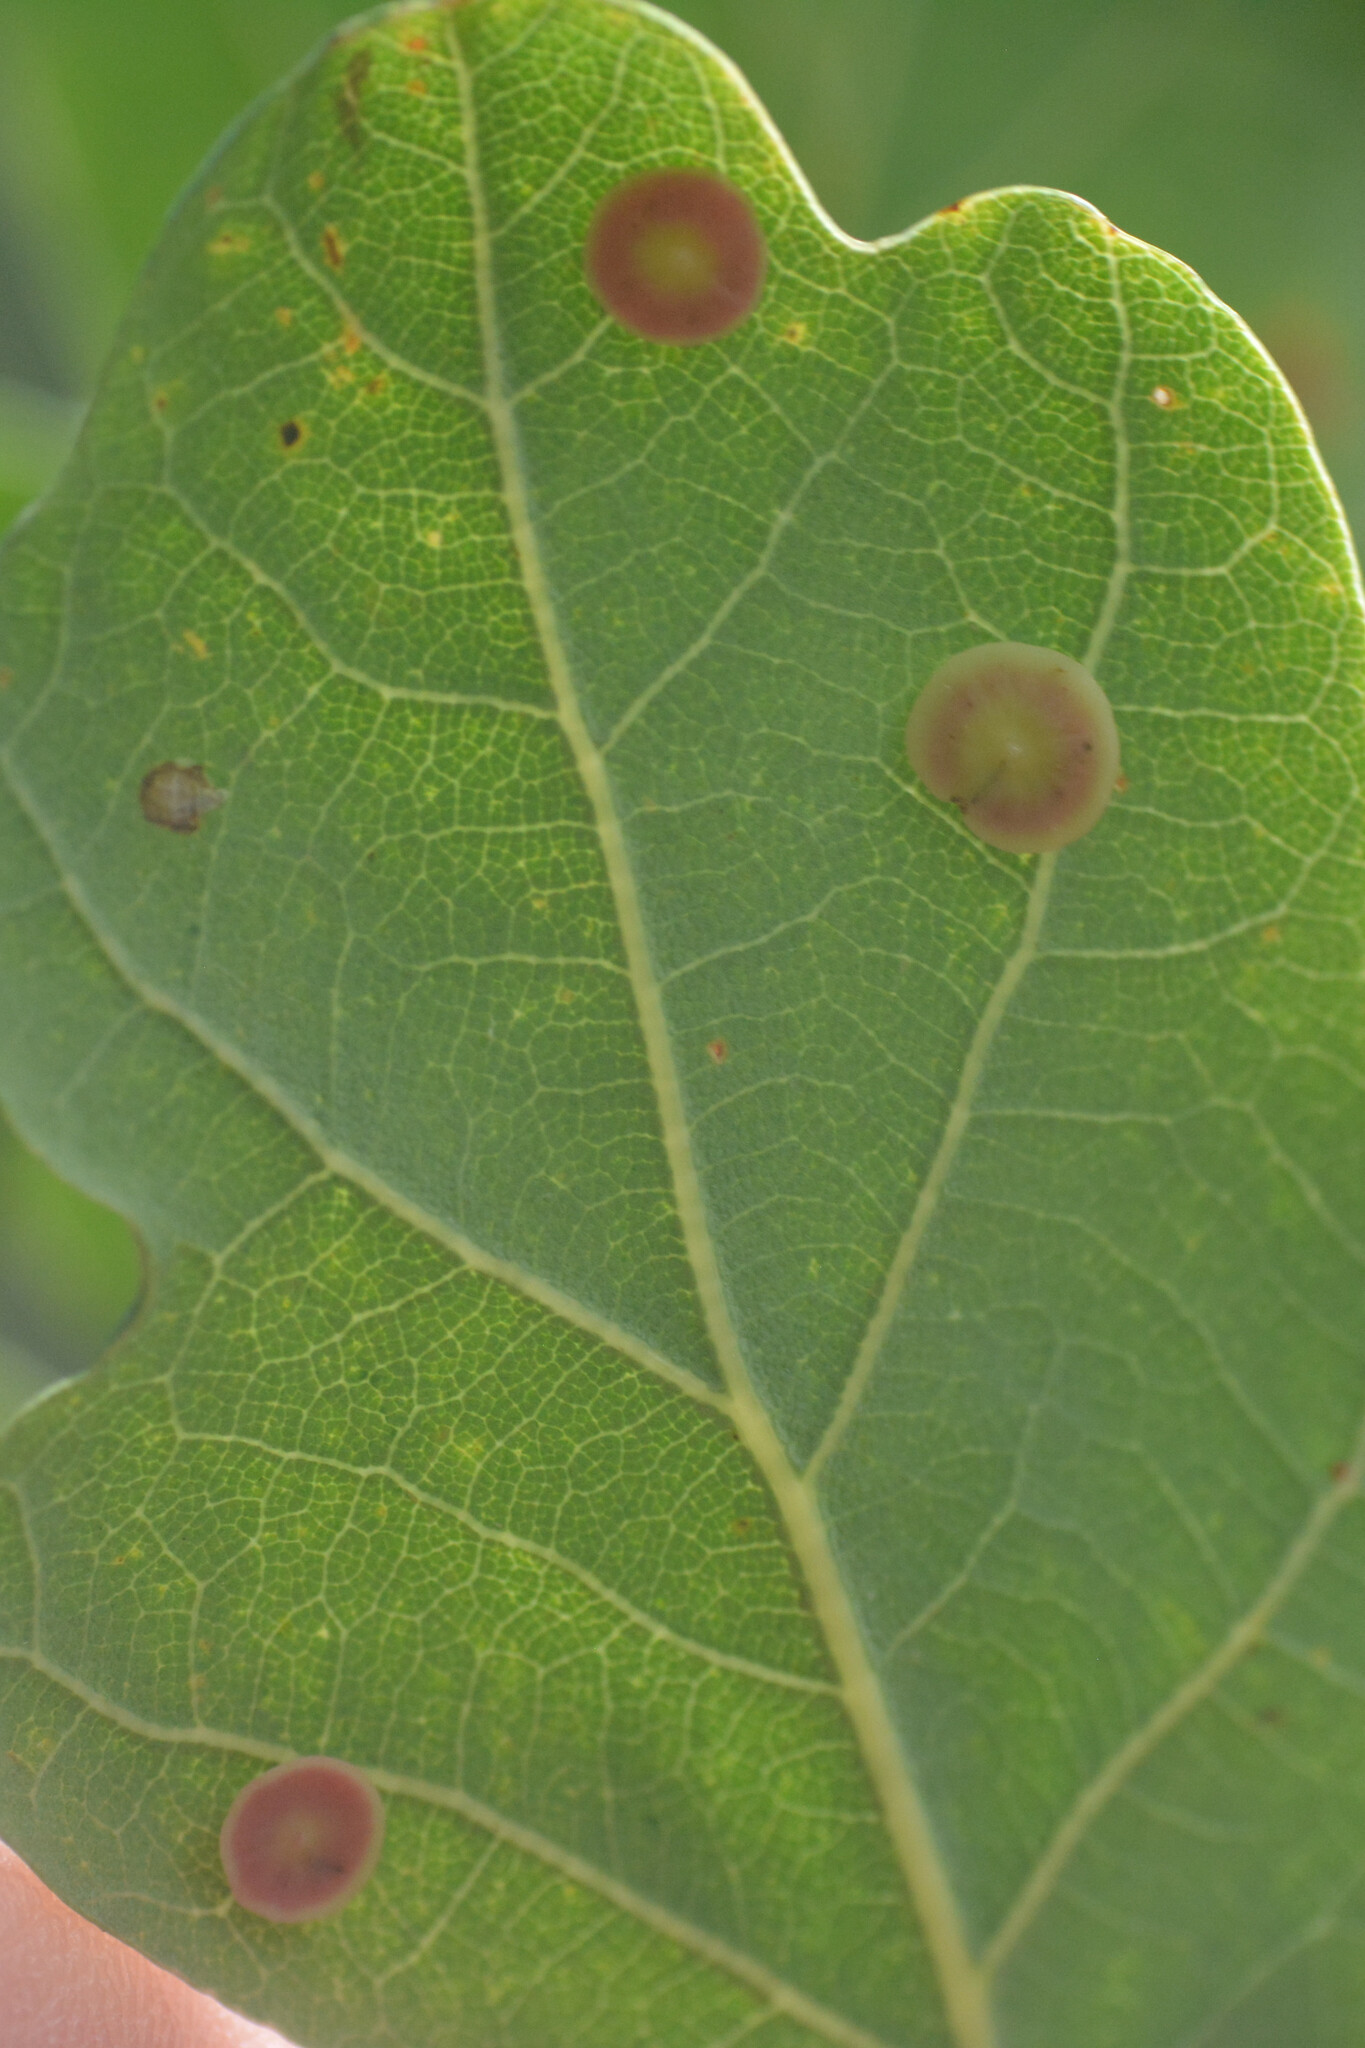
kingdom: Animalia
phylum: Arthropoda
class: Insecta
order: Hymenoptera
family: Cynipidae
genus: Neuroterus
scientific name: Neuroterus albipes
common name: Smooth spangle gall
